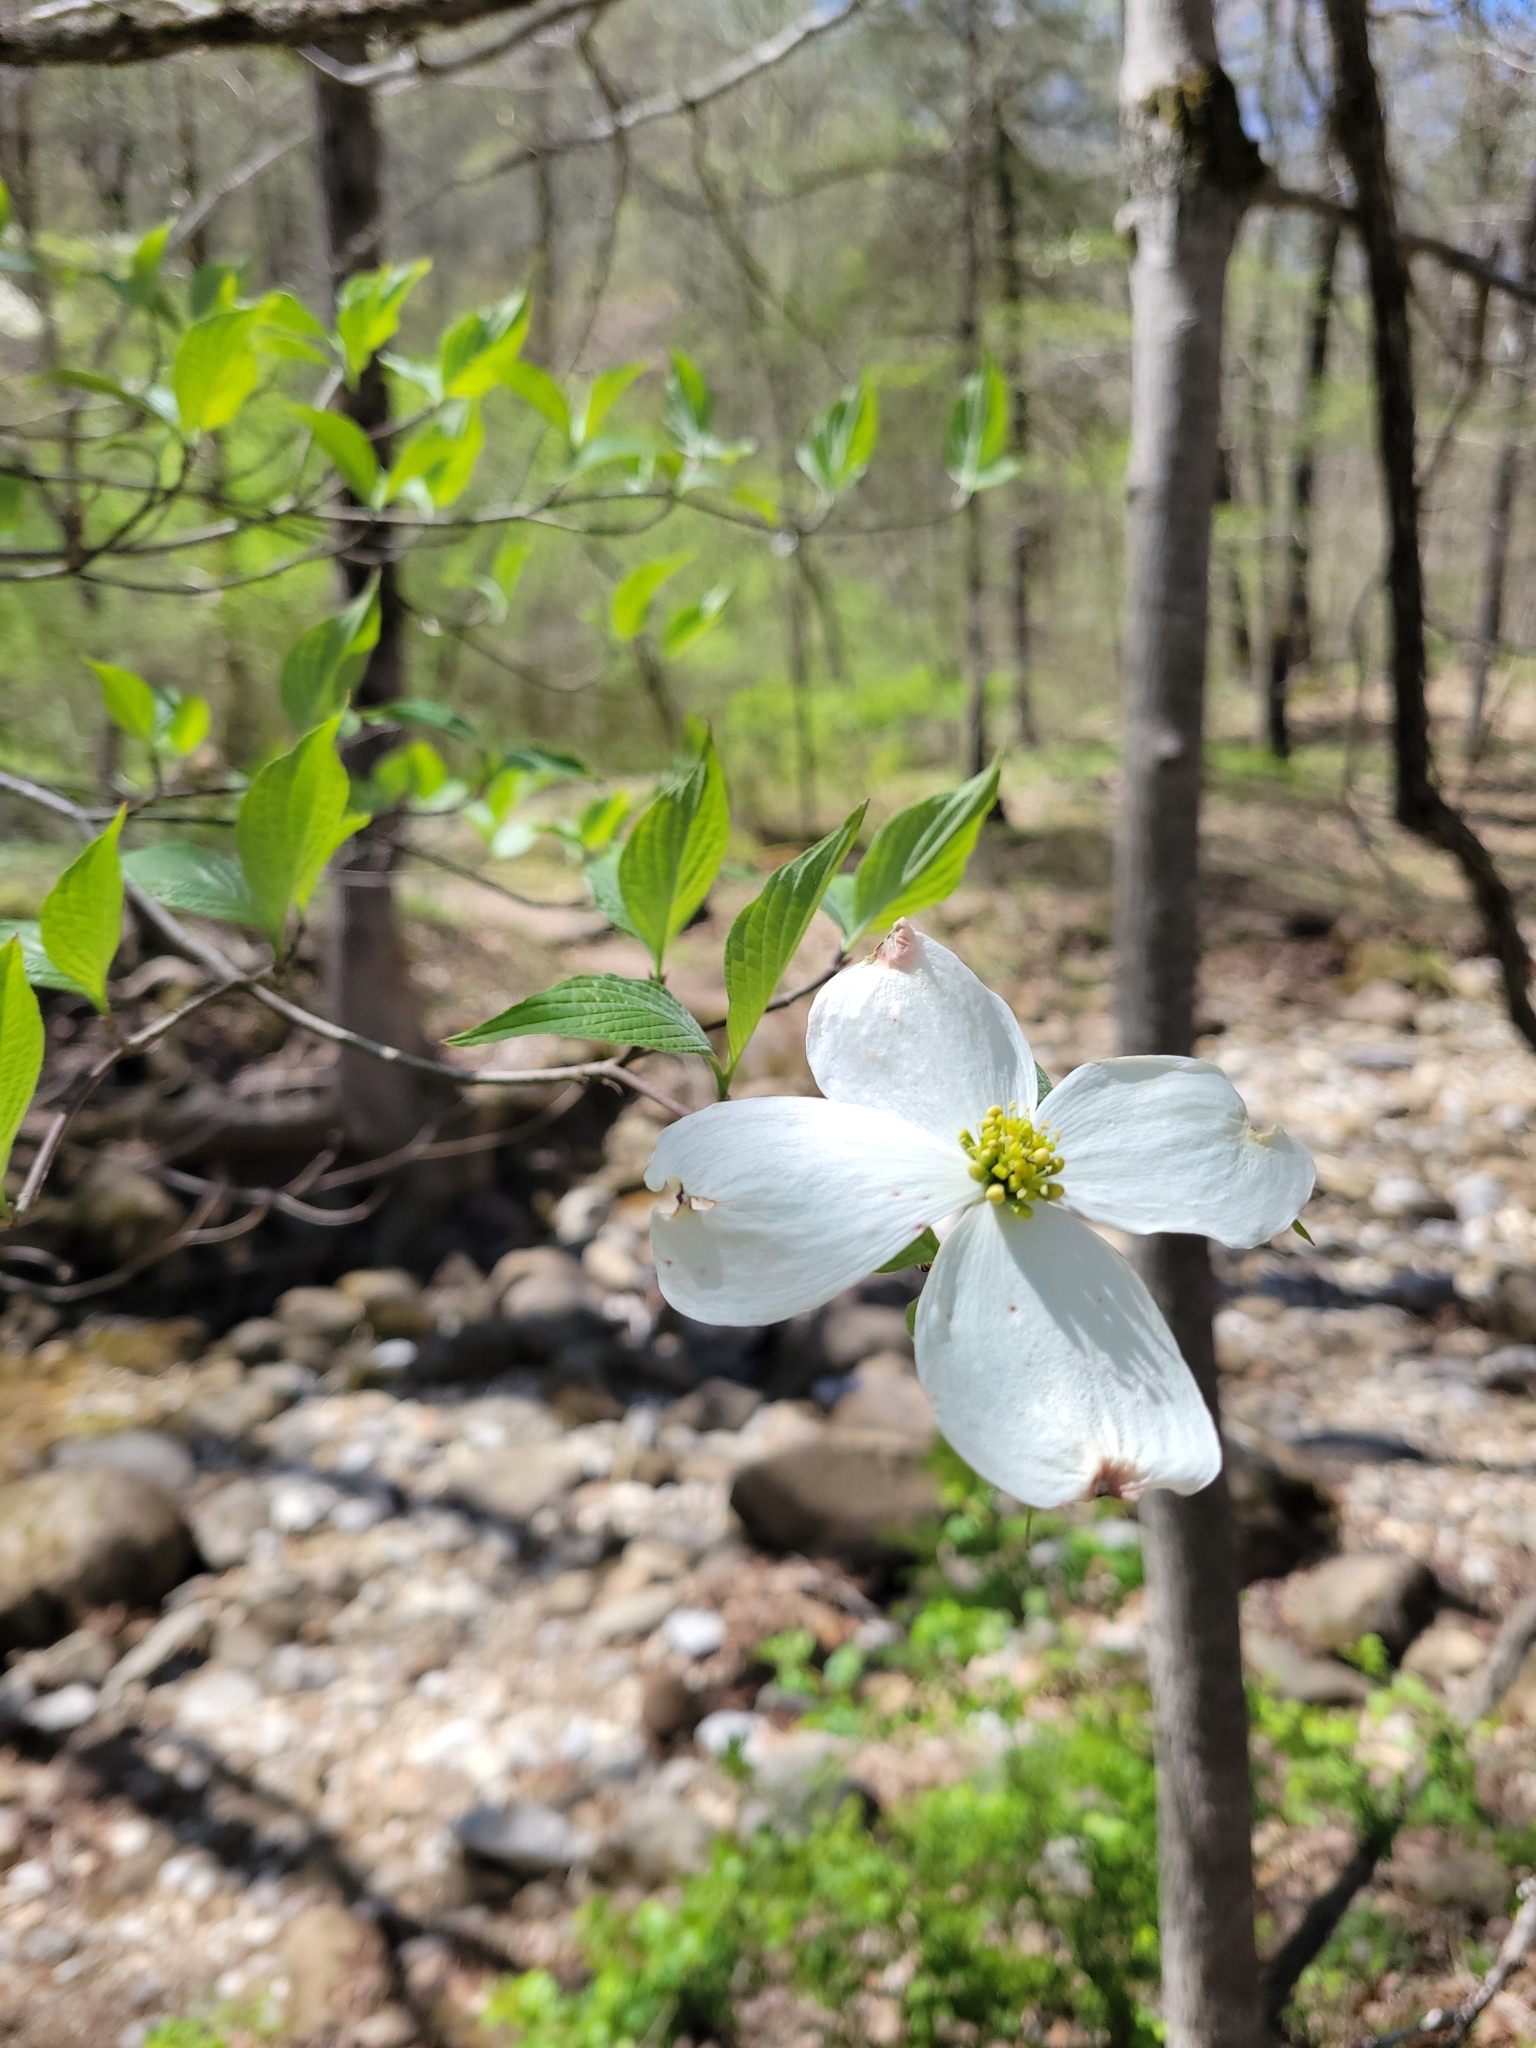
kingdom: Plantae
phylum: Tracheophyta
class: Magnoliopsida
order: Cornales
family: Cornaceae
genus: Cornus
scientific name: Cornus florida
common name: Flowering dogwood
